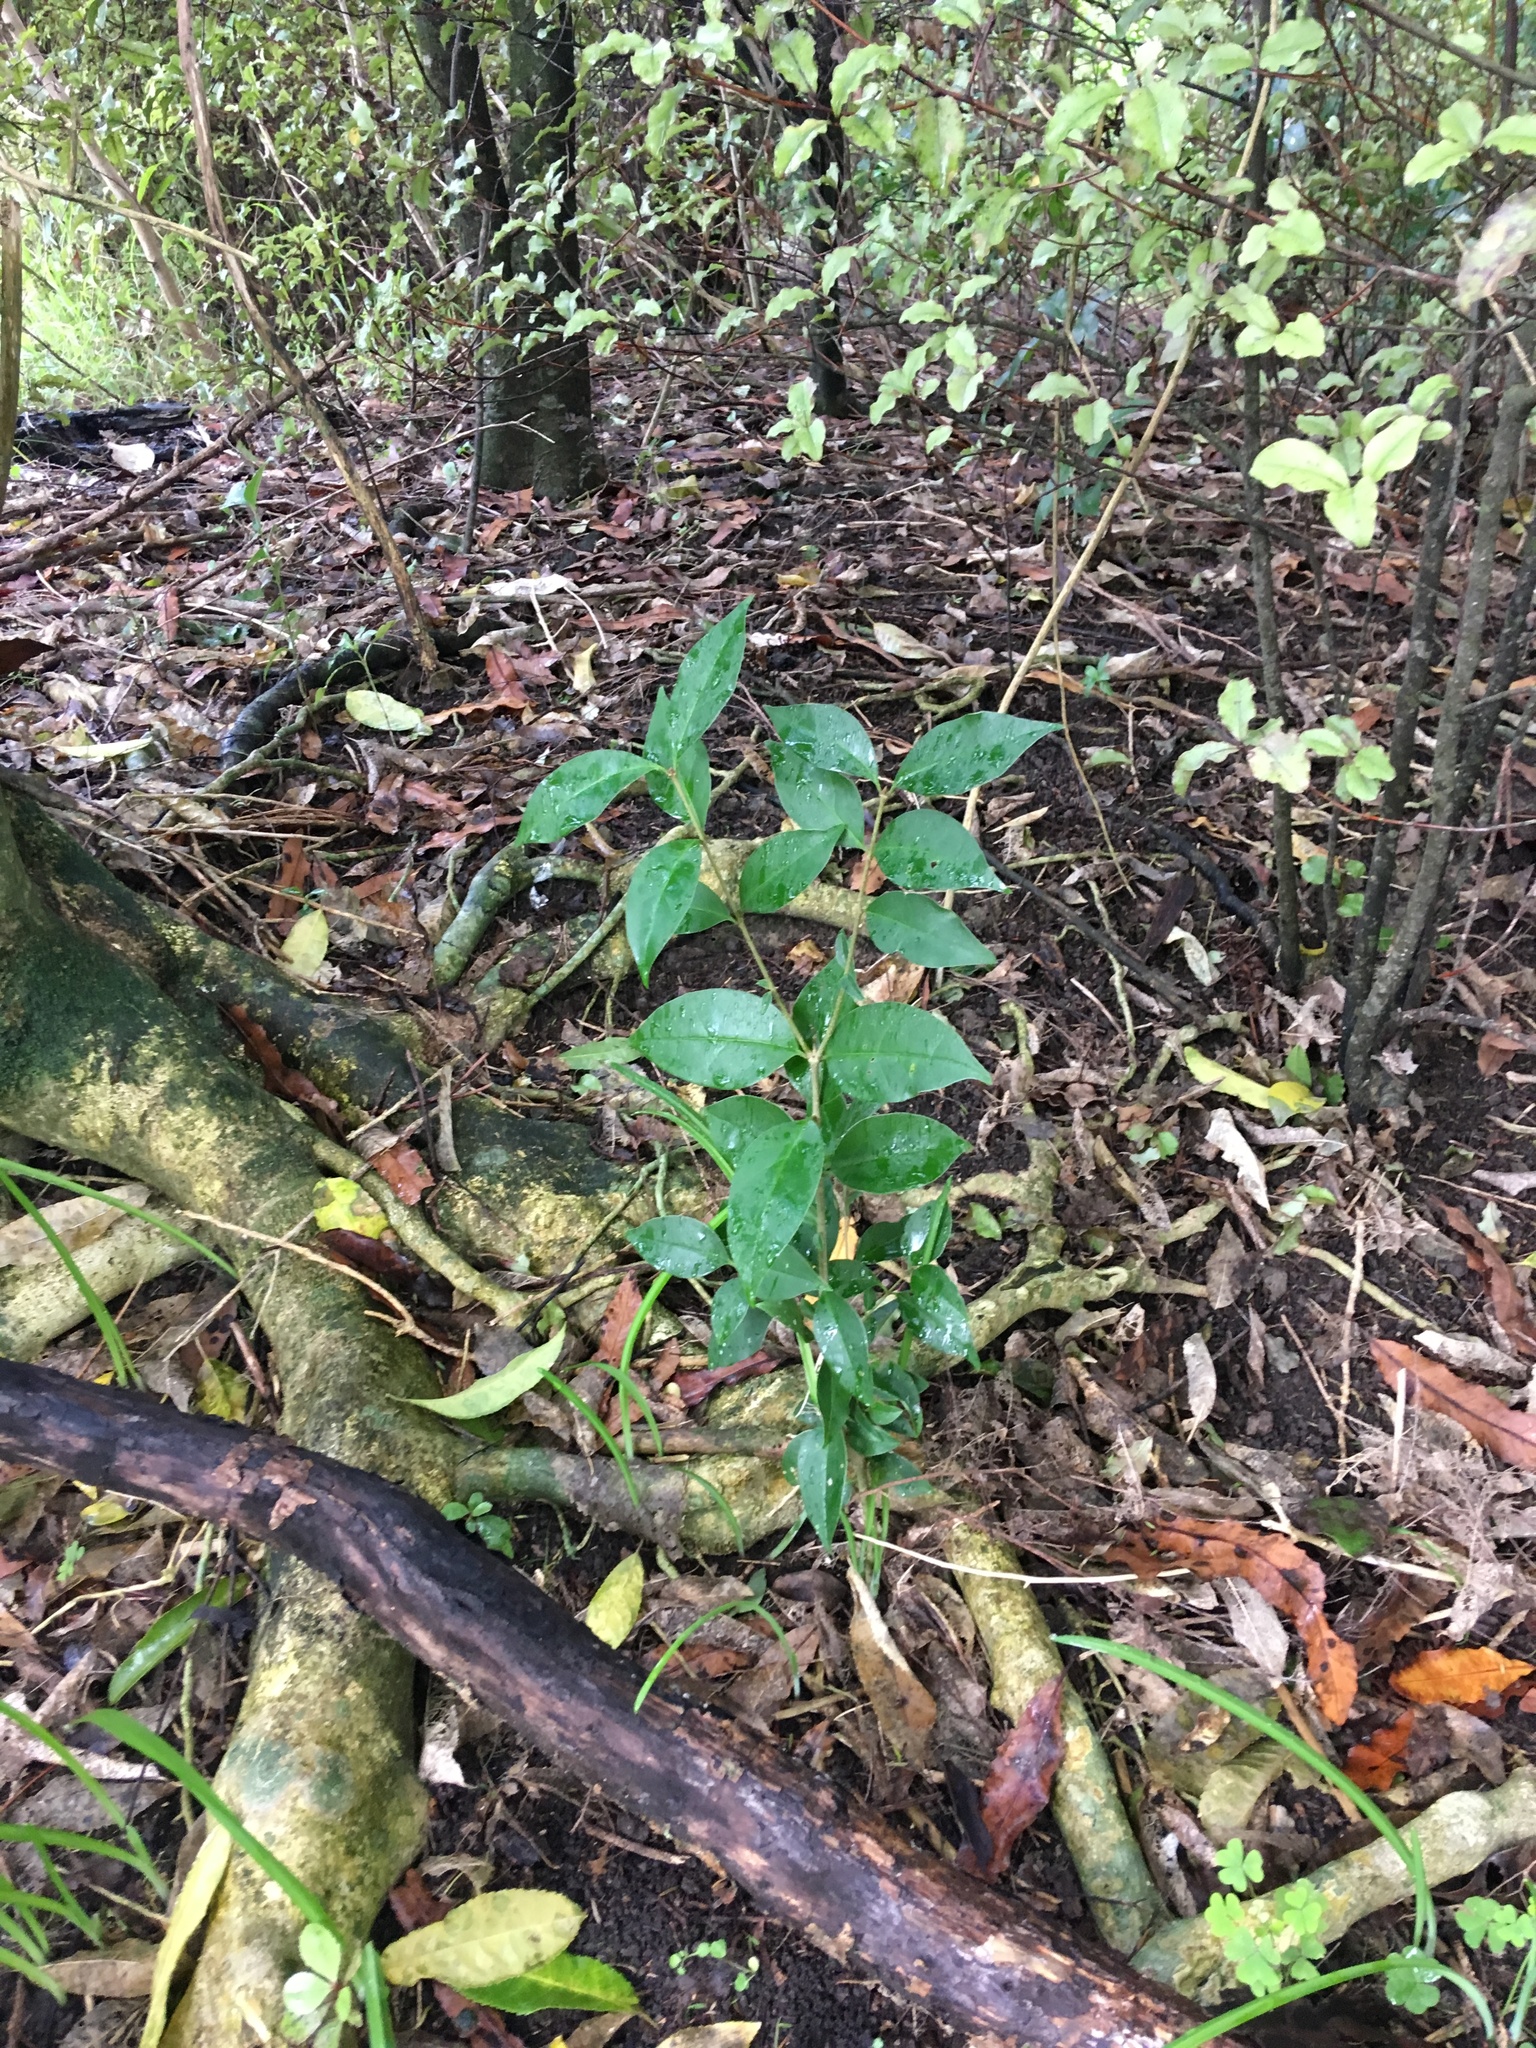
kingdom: Plantae
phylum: Tracheophyta
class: Magnoliopsida
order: Lamiales
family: Oleaceae
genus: Ligustrum
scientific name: Ligustrum lucidum
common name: Glossy privet
